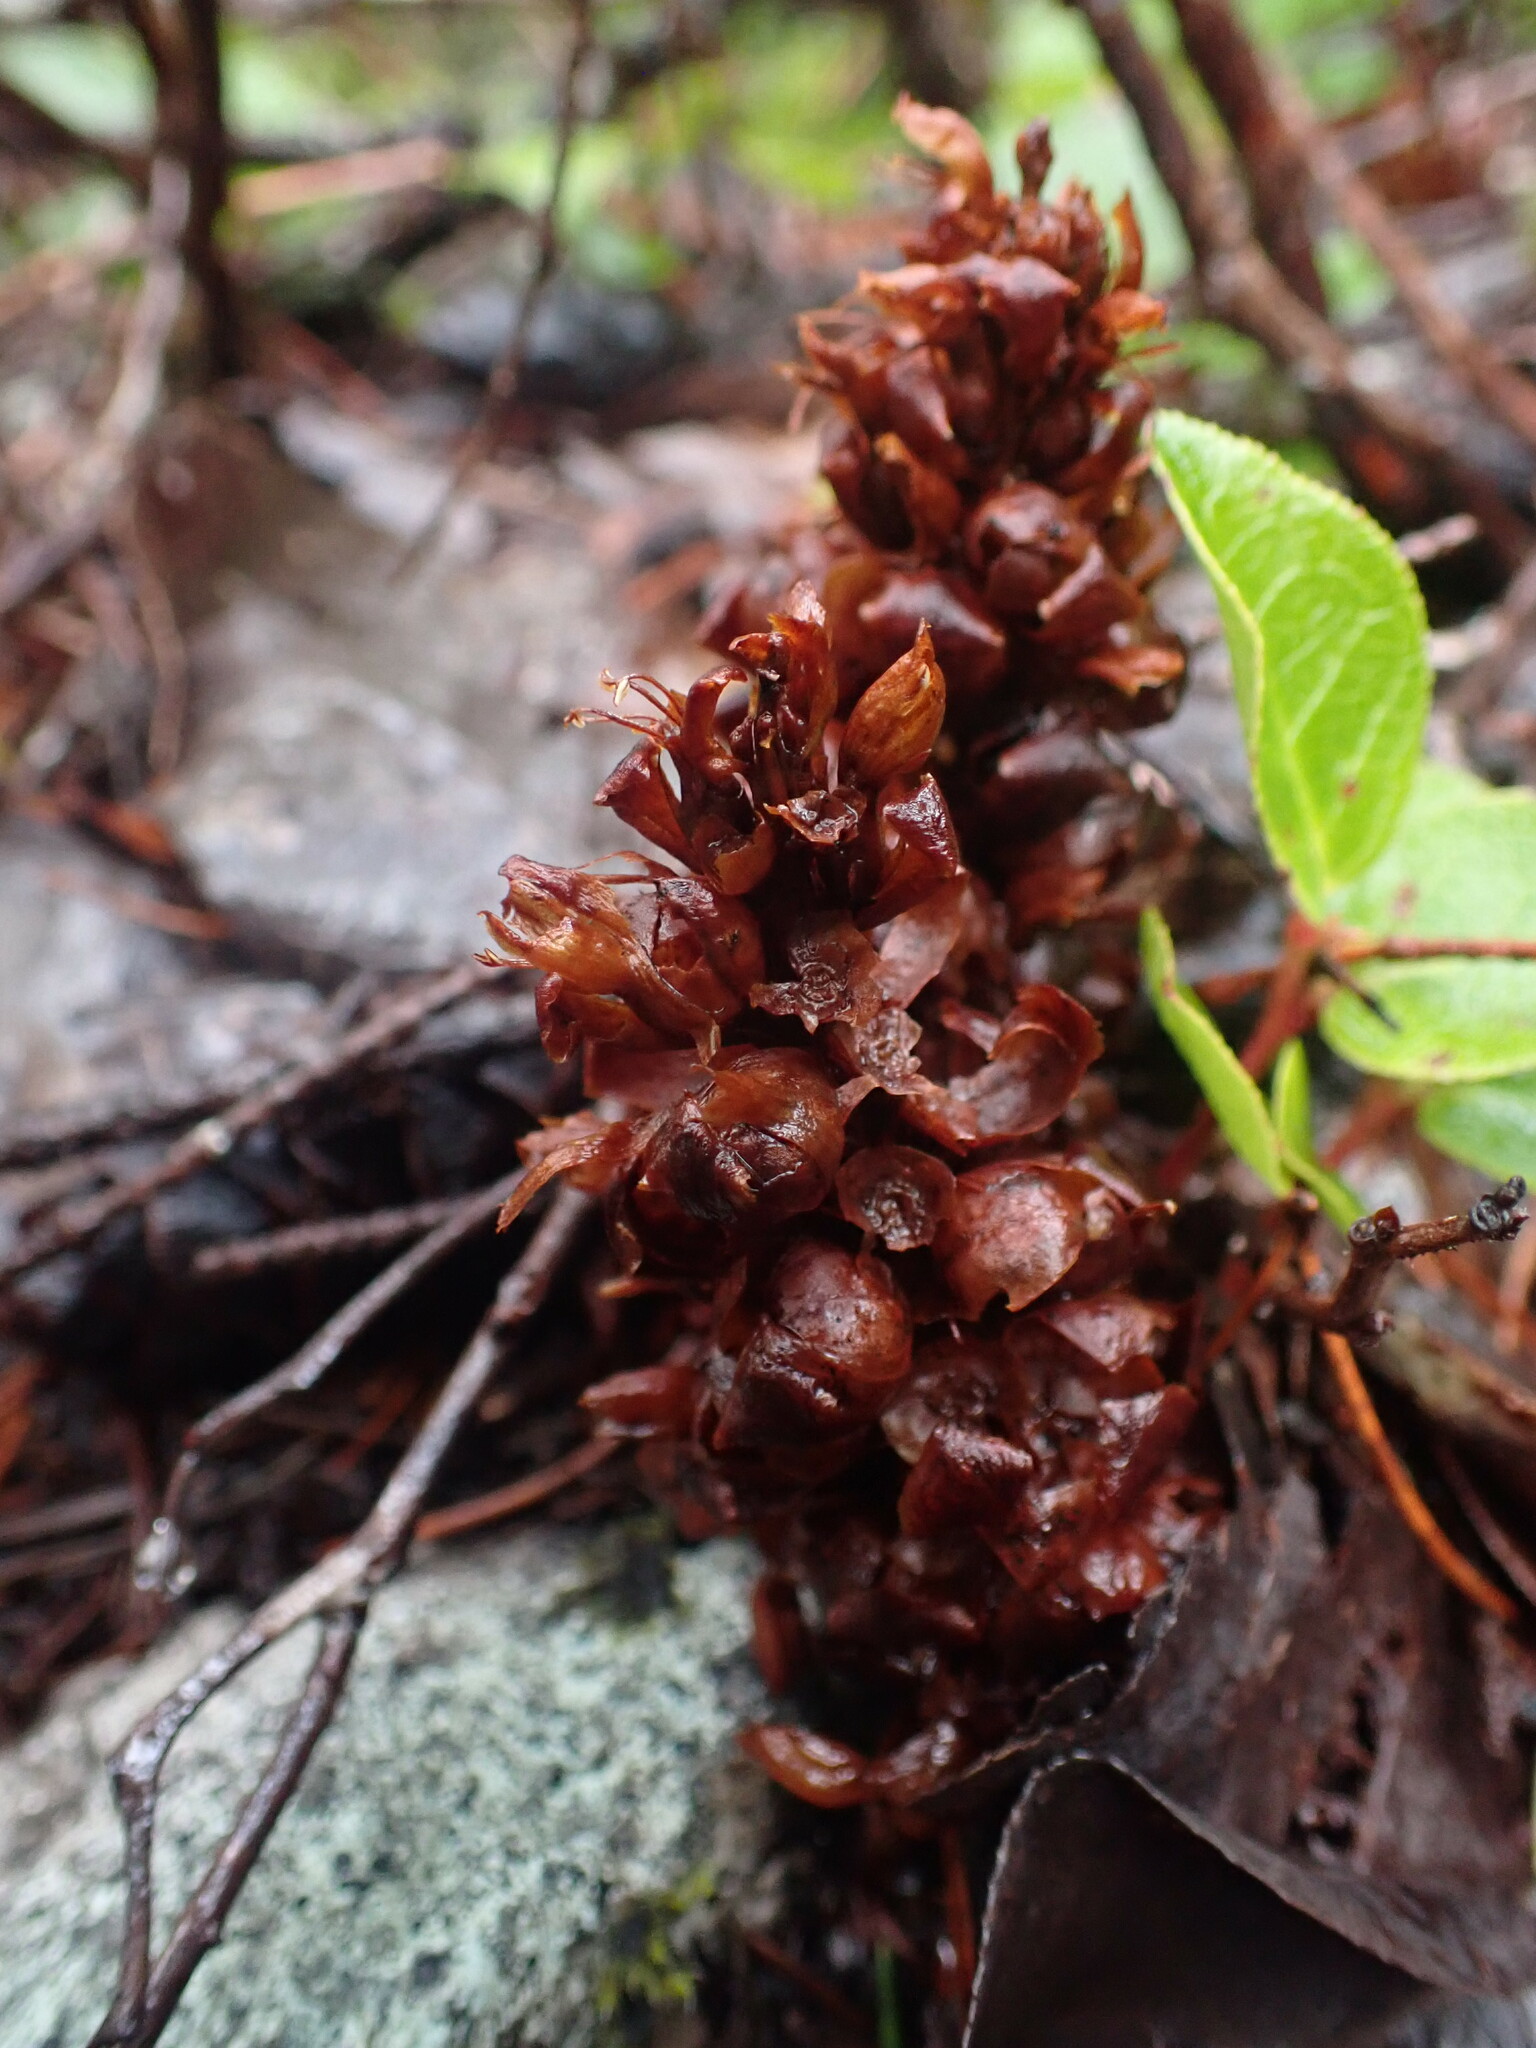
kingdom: Plantae
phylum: Tracheophyta
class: Magnoliopsida
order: Lamiales
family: Orobanchaceae
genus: Kopsiopsis
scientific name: Kopsiopsis hookeri
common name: Hooker's groundcone
